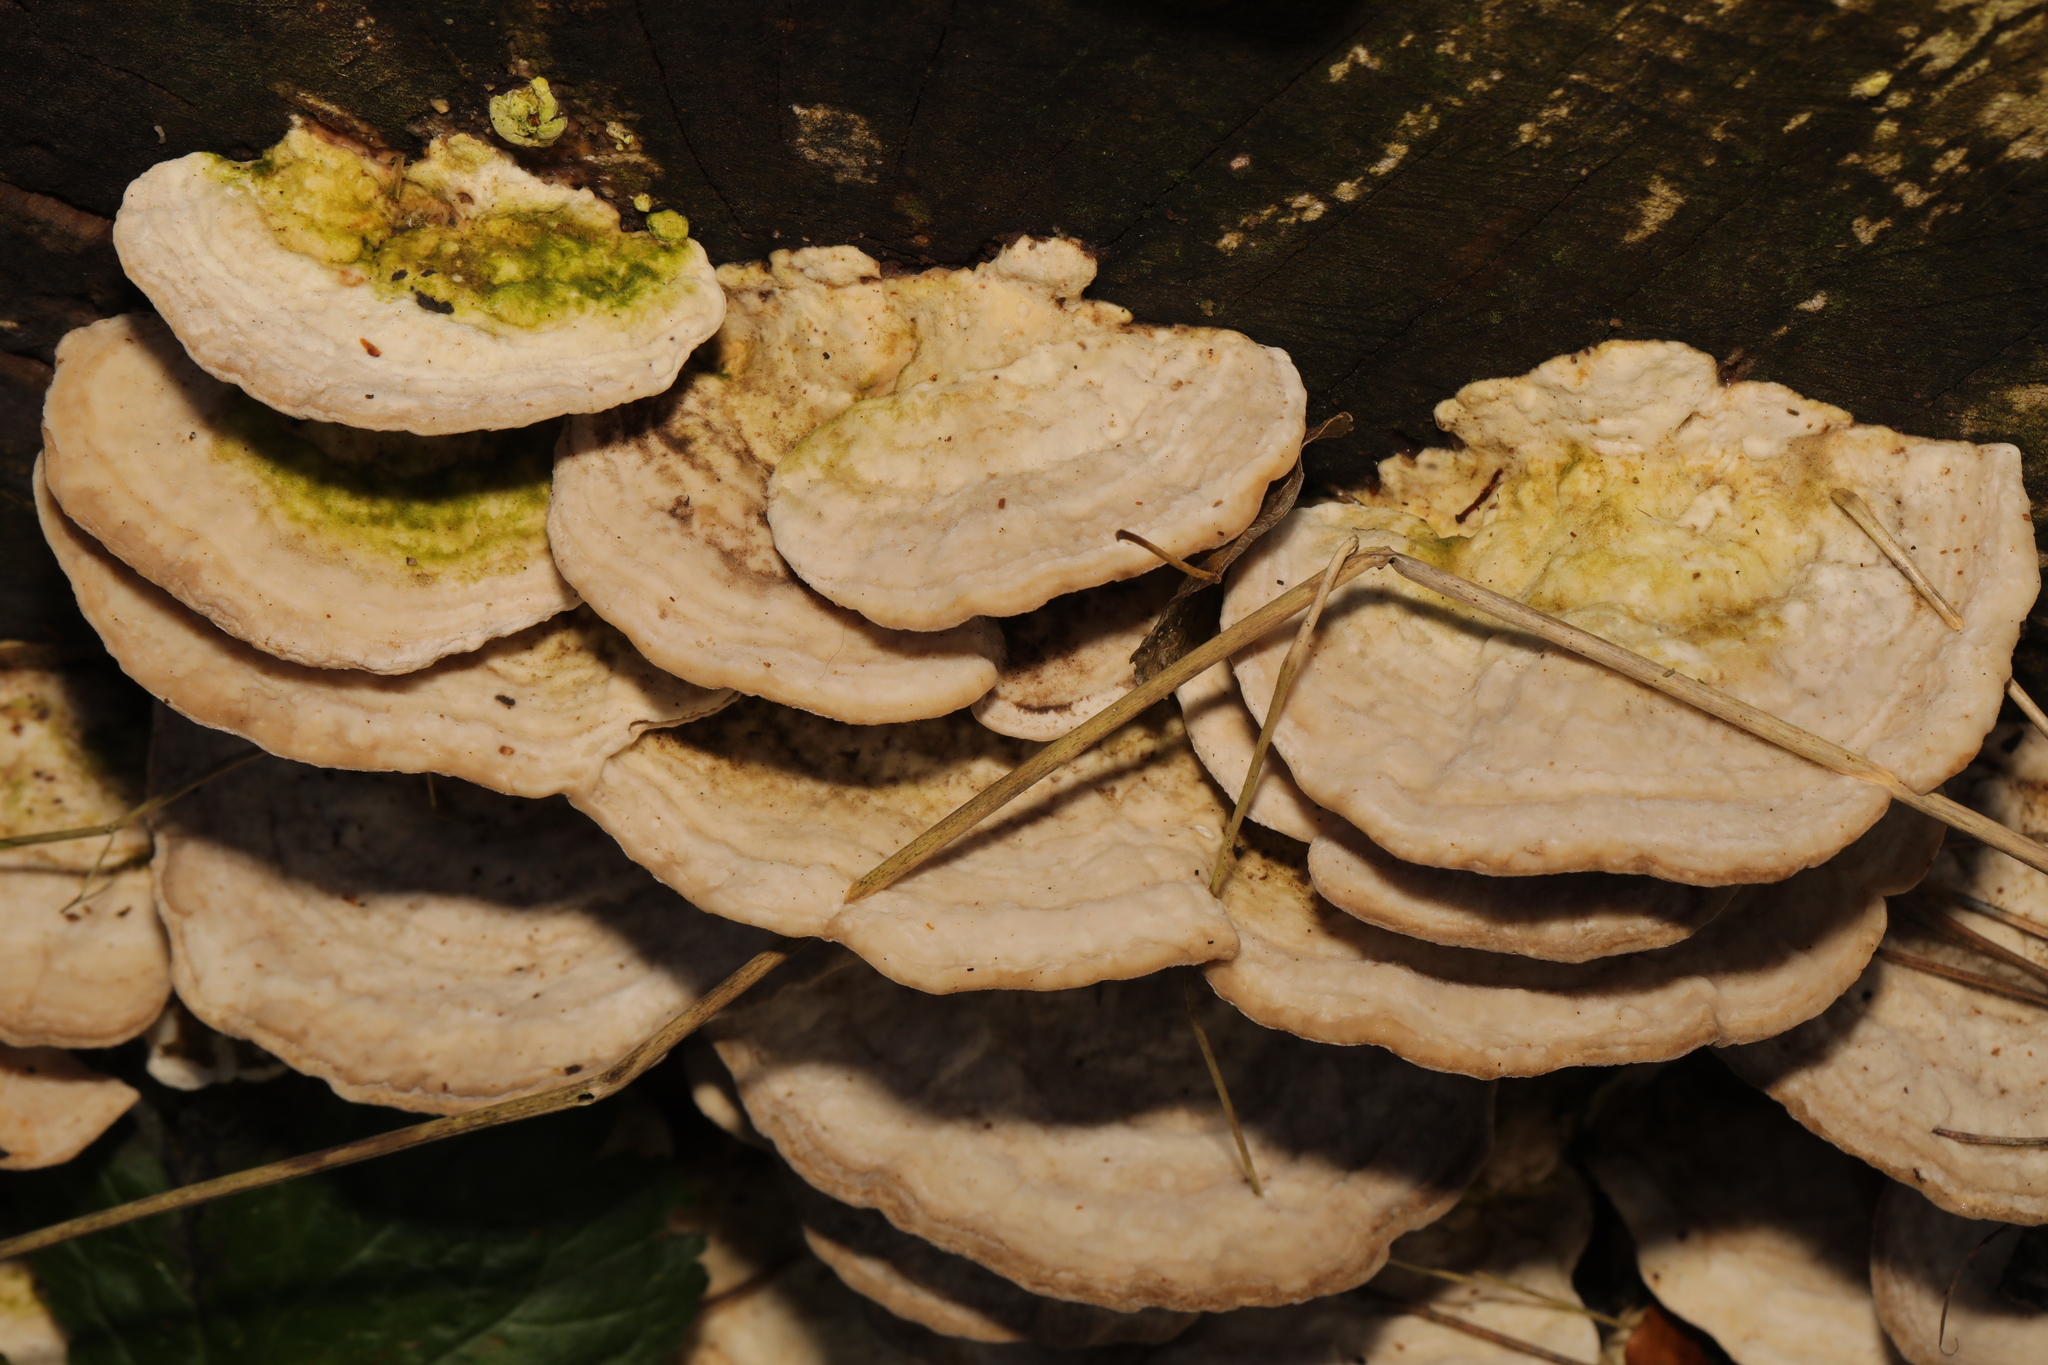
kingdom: Fungi
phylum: Basidiomycota
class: Agaricomycetes
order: Polyporales
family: Polyporaceae
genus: Trametes
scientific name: Trametes gibbosa
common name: Lumpy bracket
